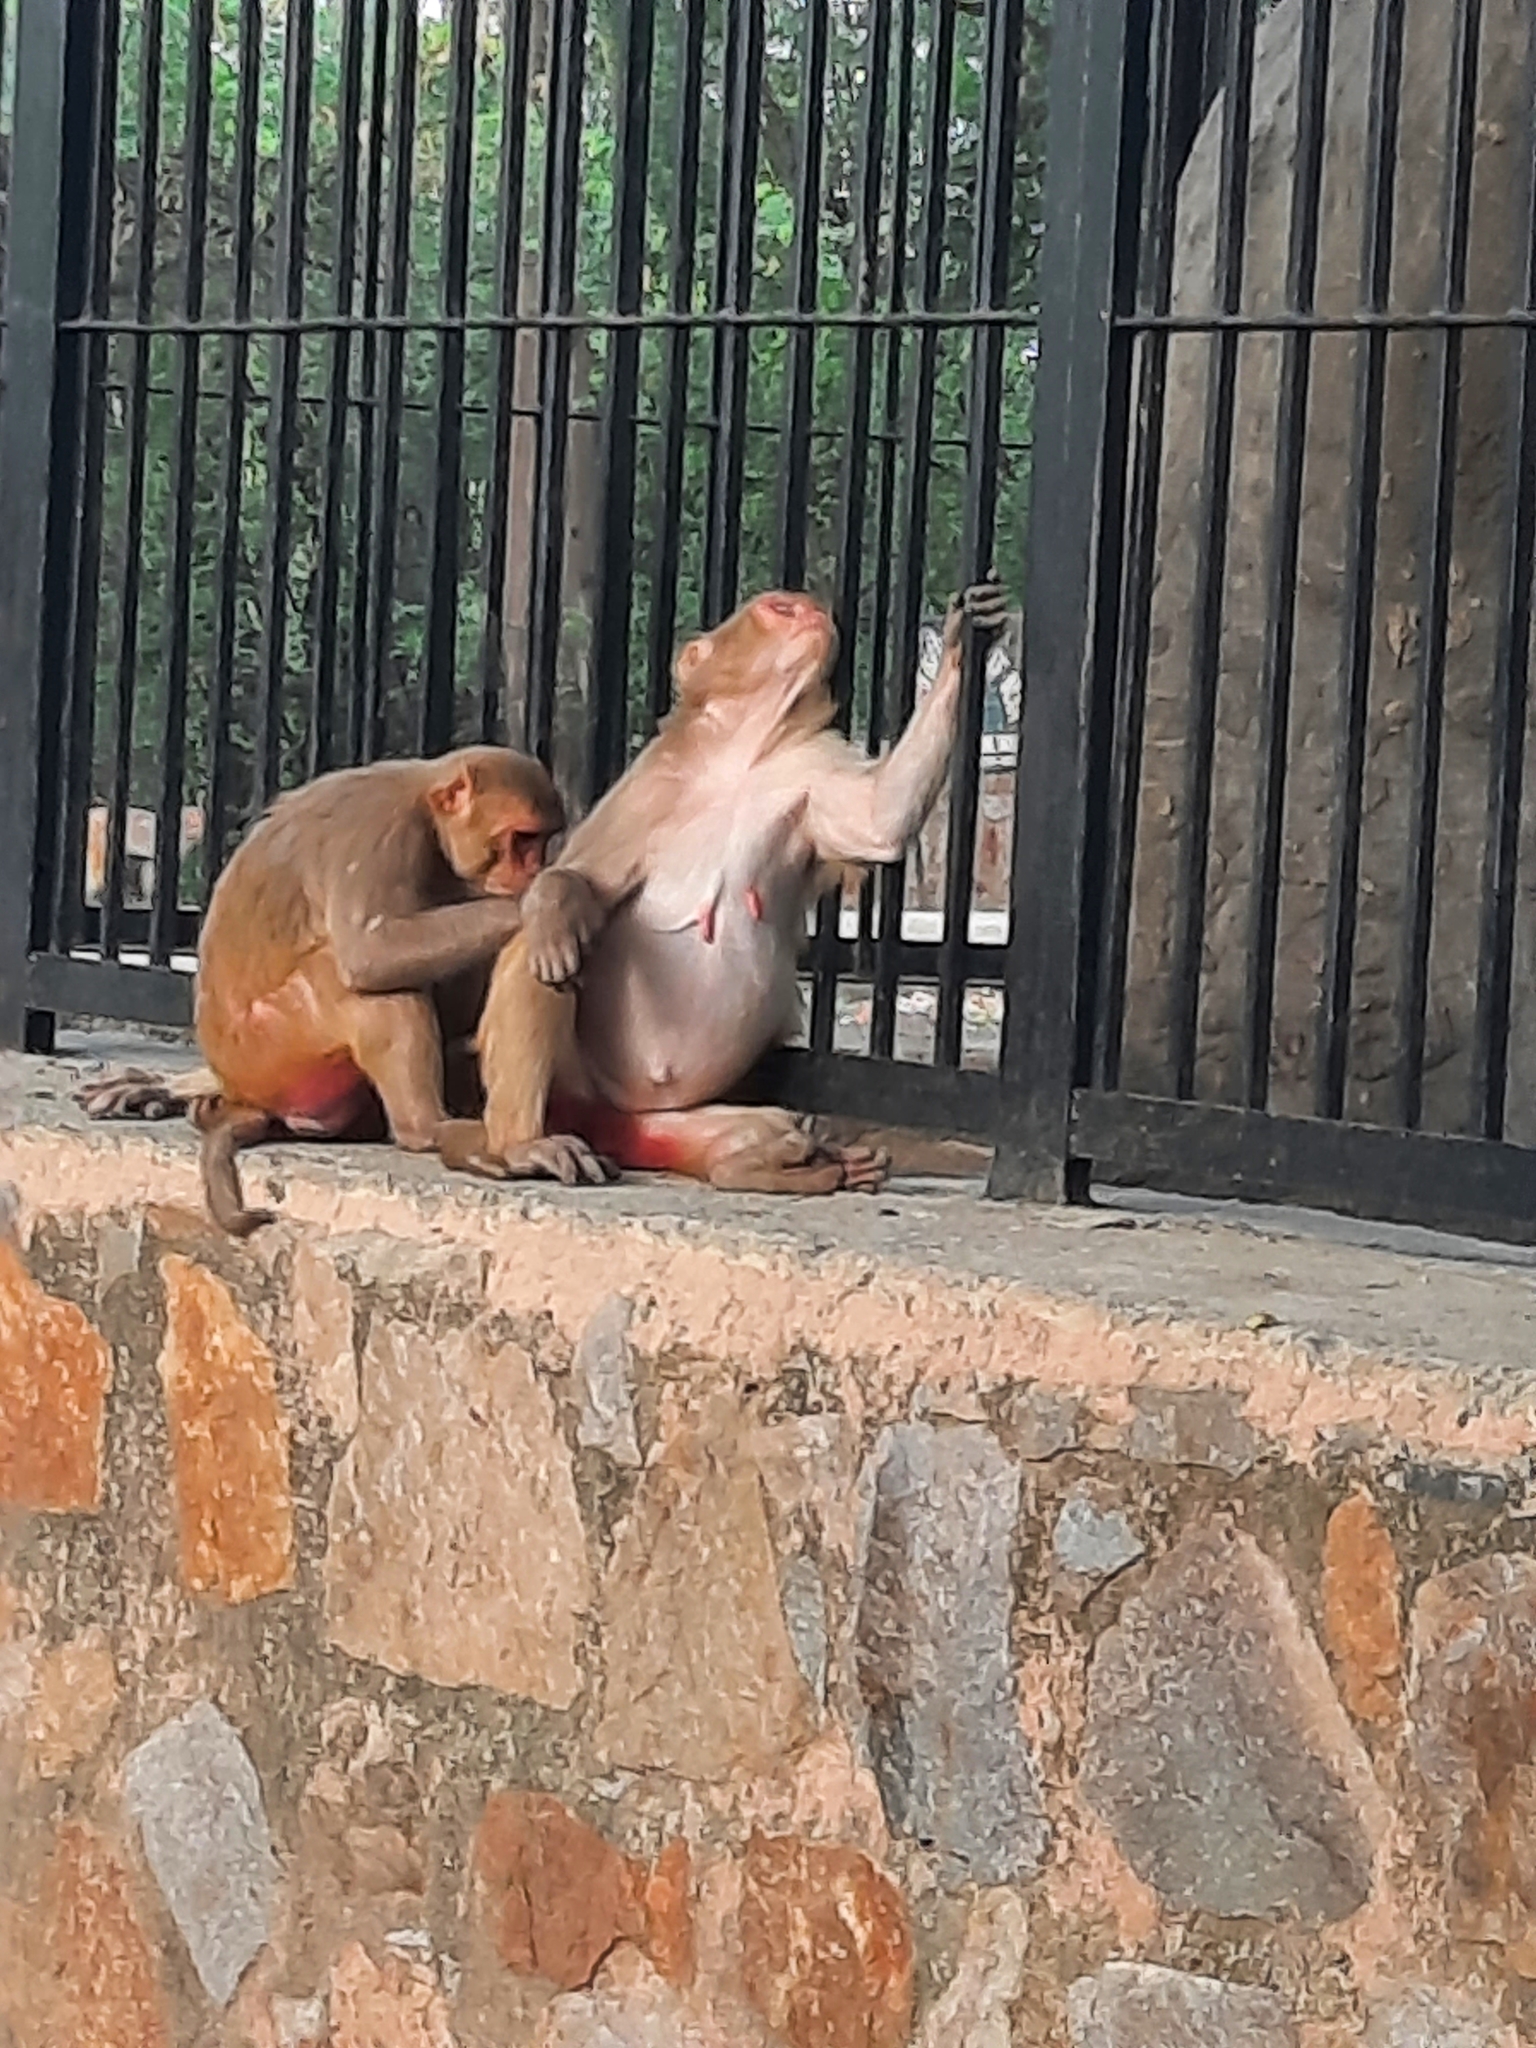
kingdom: Animalia
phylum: Chordata
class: Mammalia
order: Primates
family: Cercopithecidae
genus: Macaca
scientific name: Macaca mulatta
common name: Rhesus monkey
